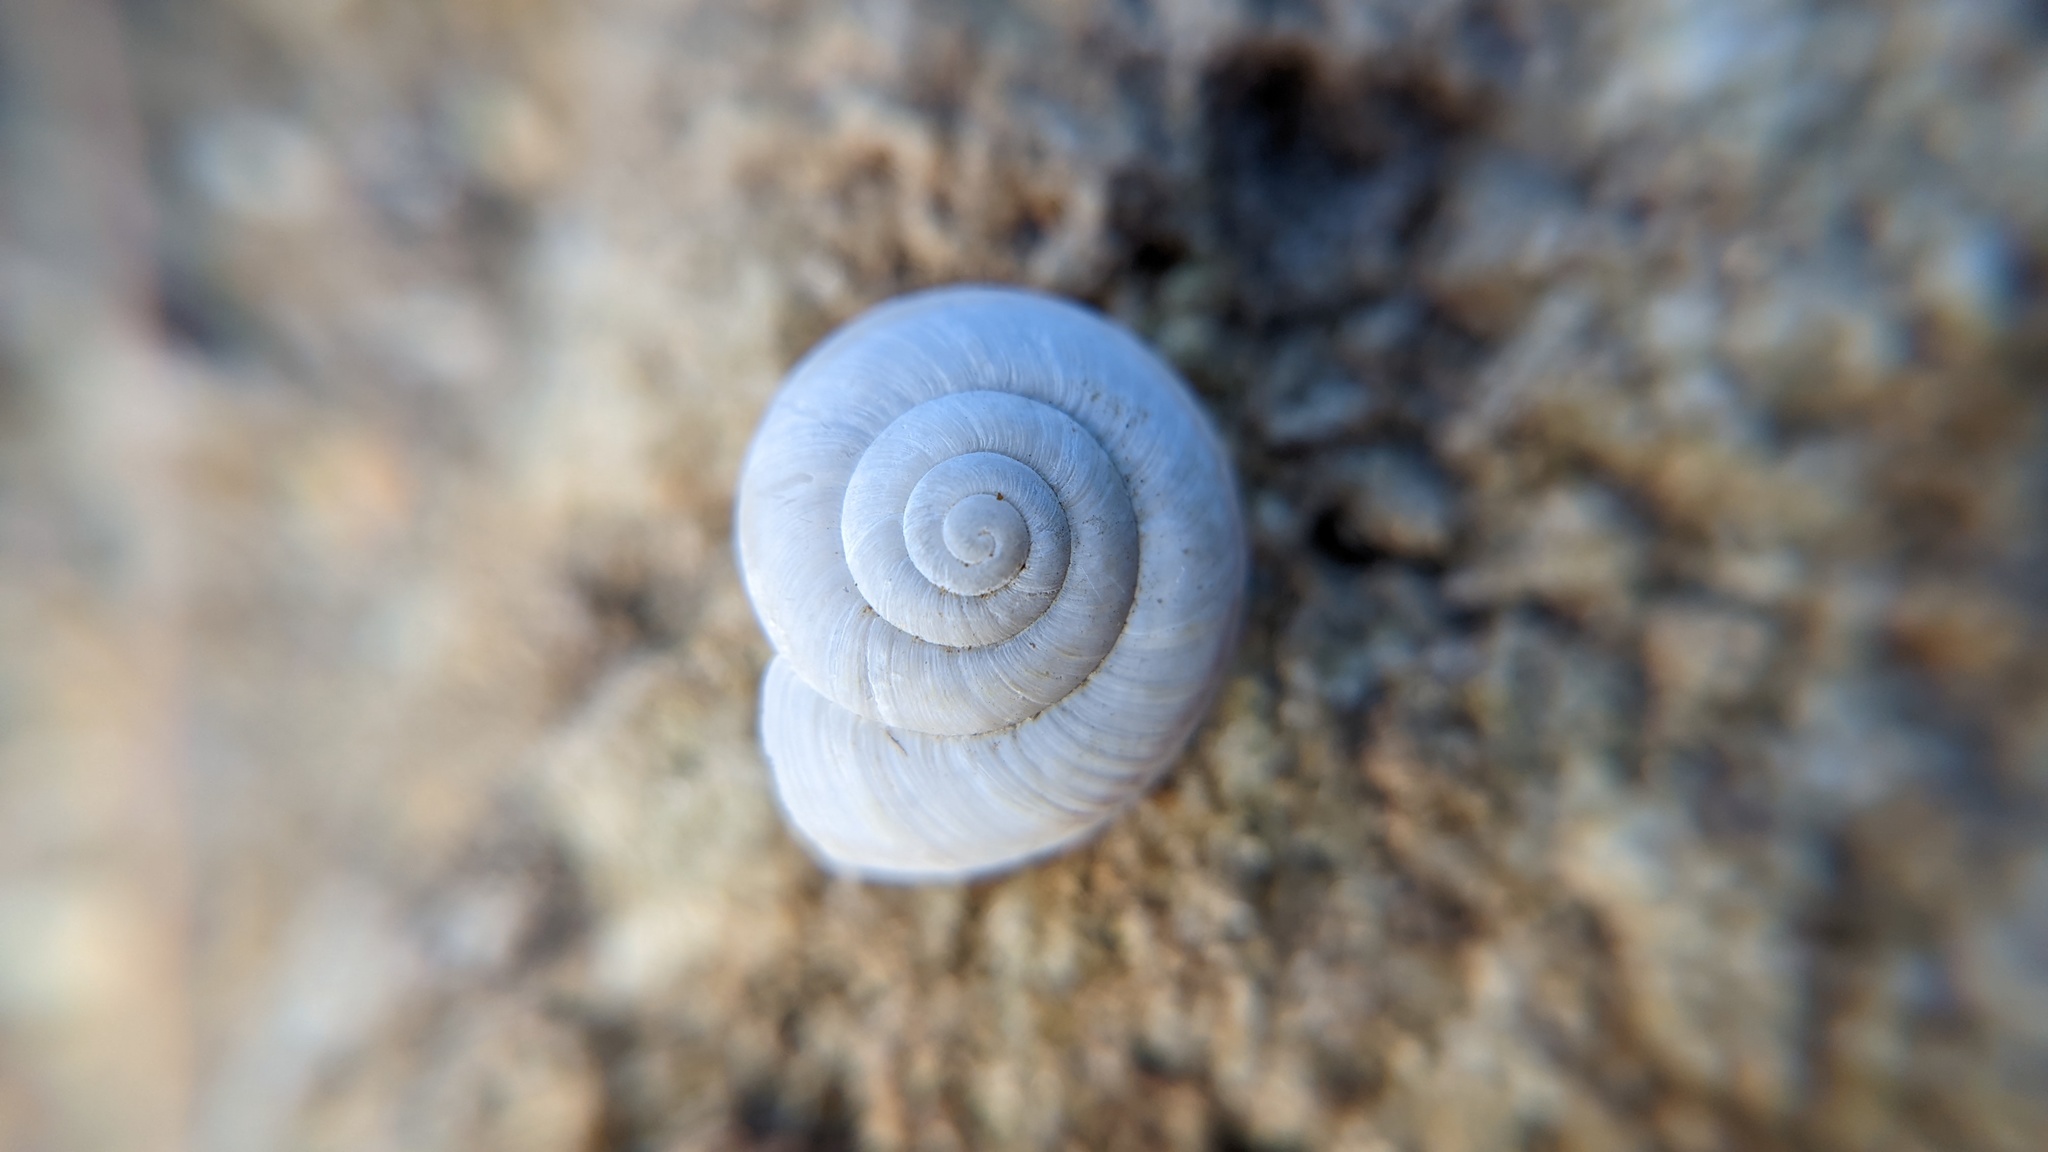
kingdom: Animalia
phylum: Mollusca
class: Gastropoda
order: Stylommatophora
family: Xanthonychidae
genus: Sonorelix
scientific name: Sonorelix borregoensis
